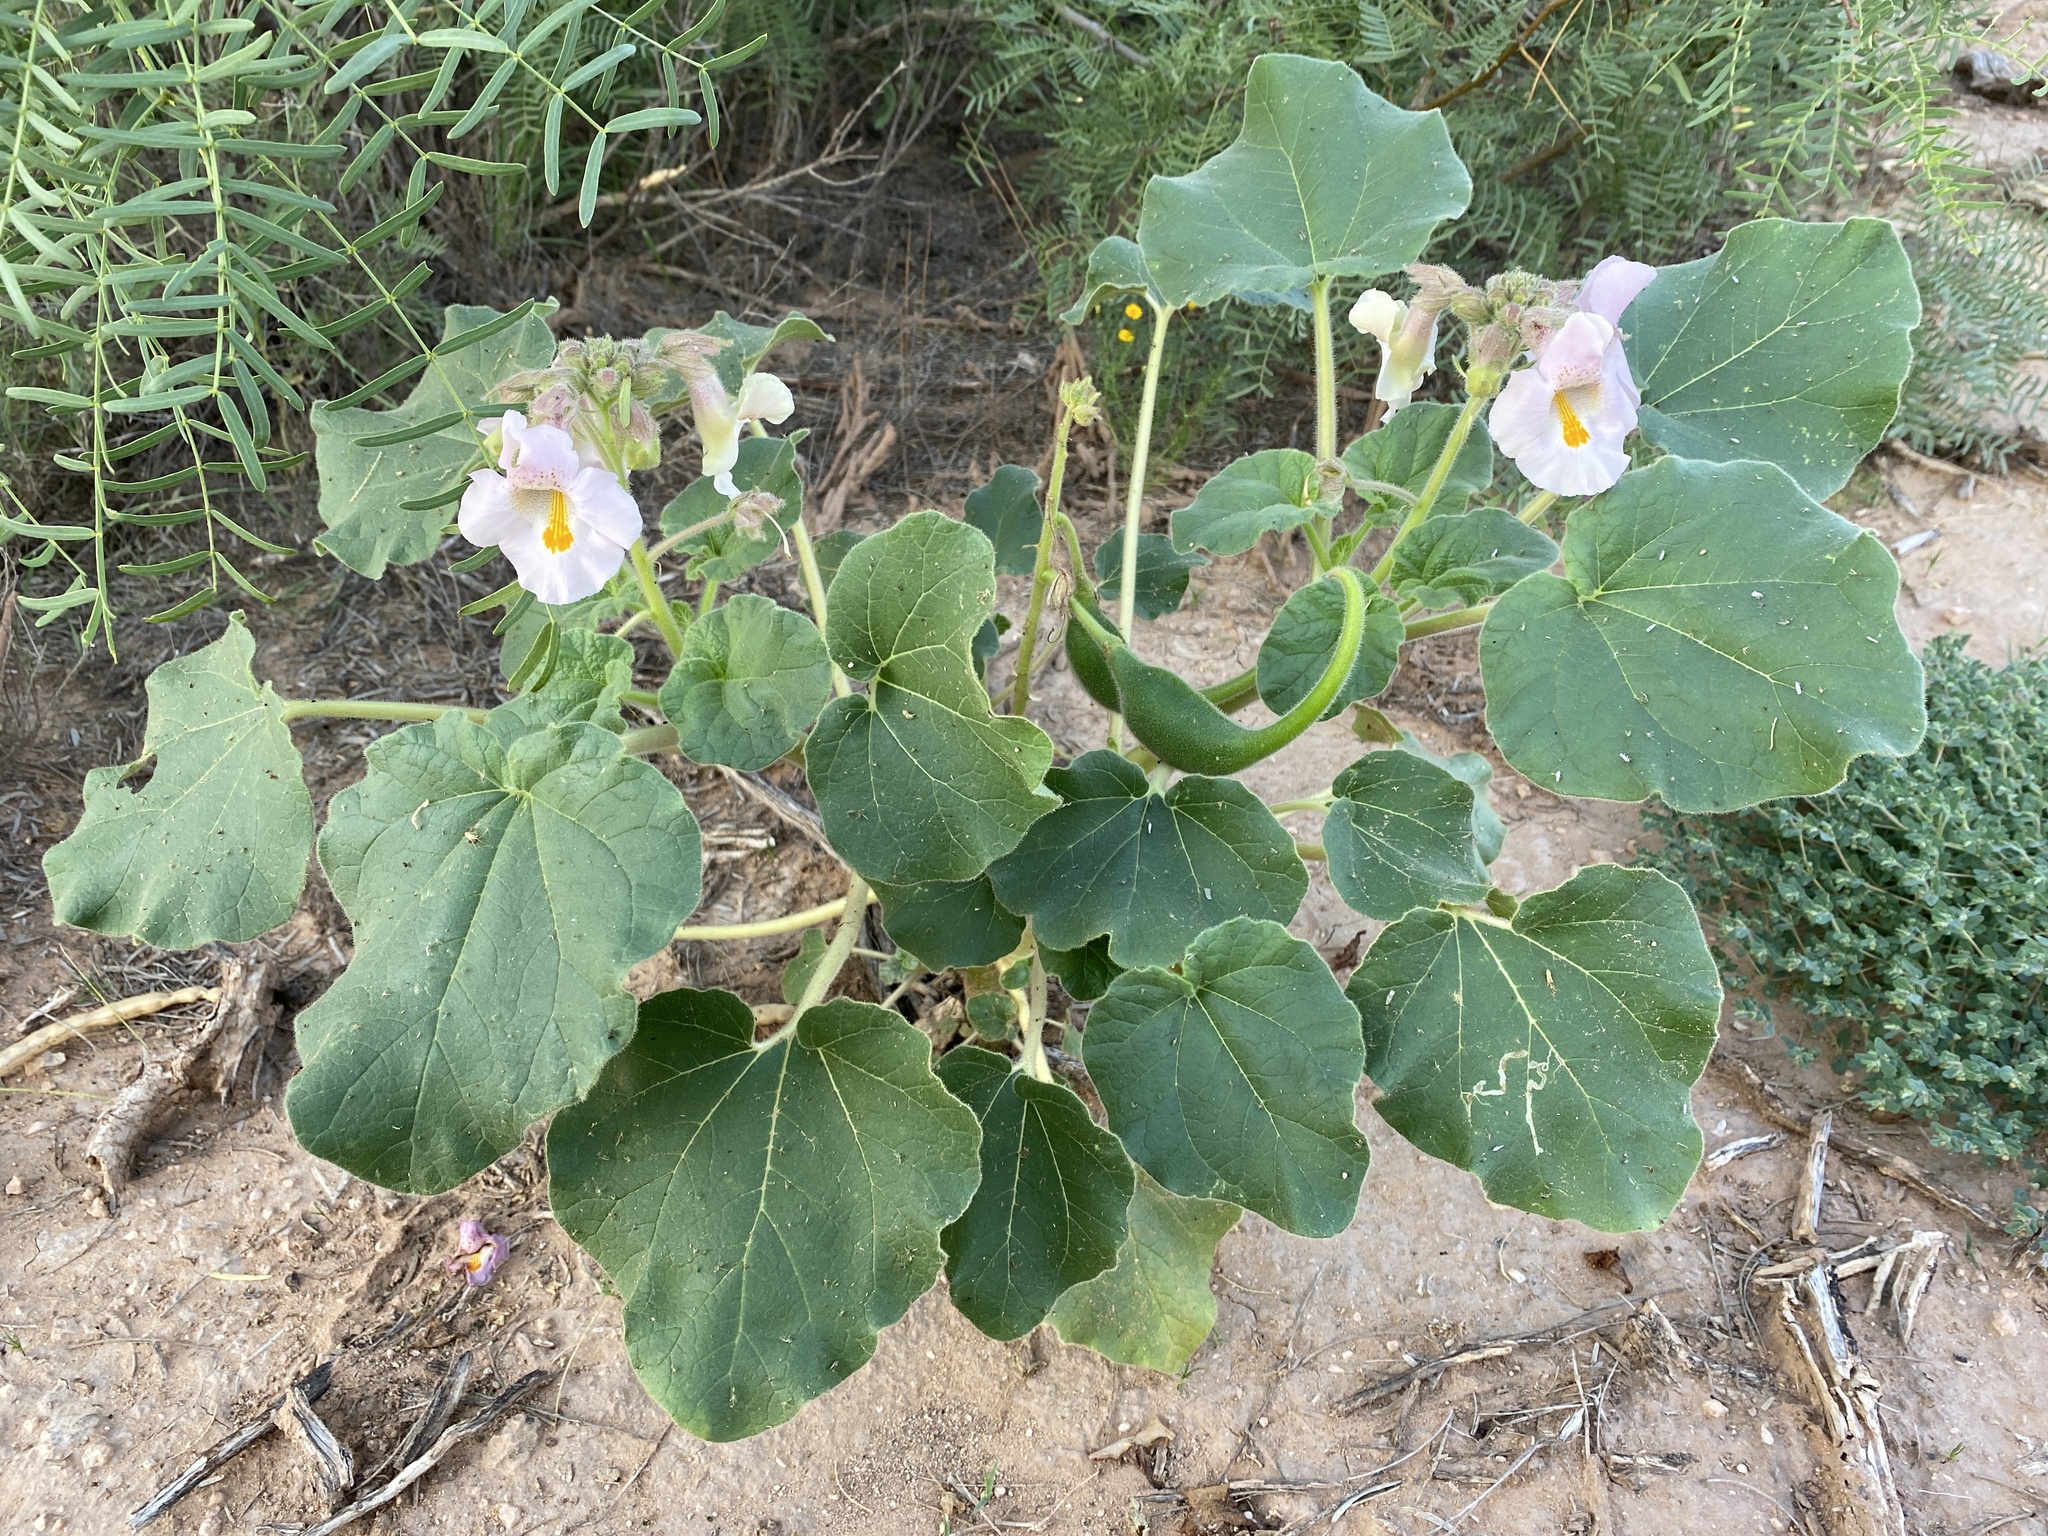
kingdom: Plantae
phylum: Tracheophyta
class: Magnoliopsida
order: Lamiales
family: Martyniaceae
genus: Proboscidea
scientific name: Proboscidea louisianica
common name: Elephant tusks
